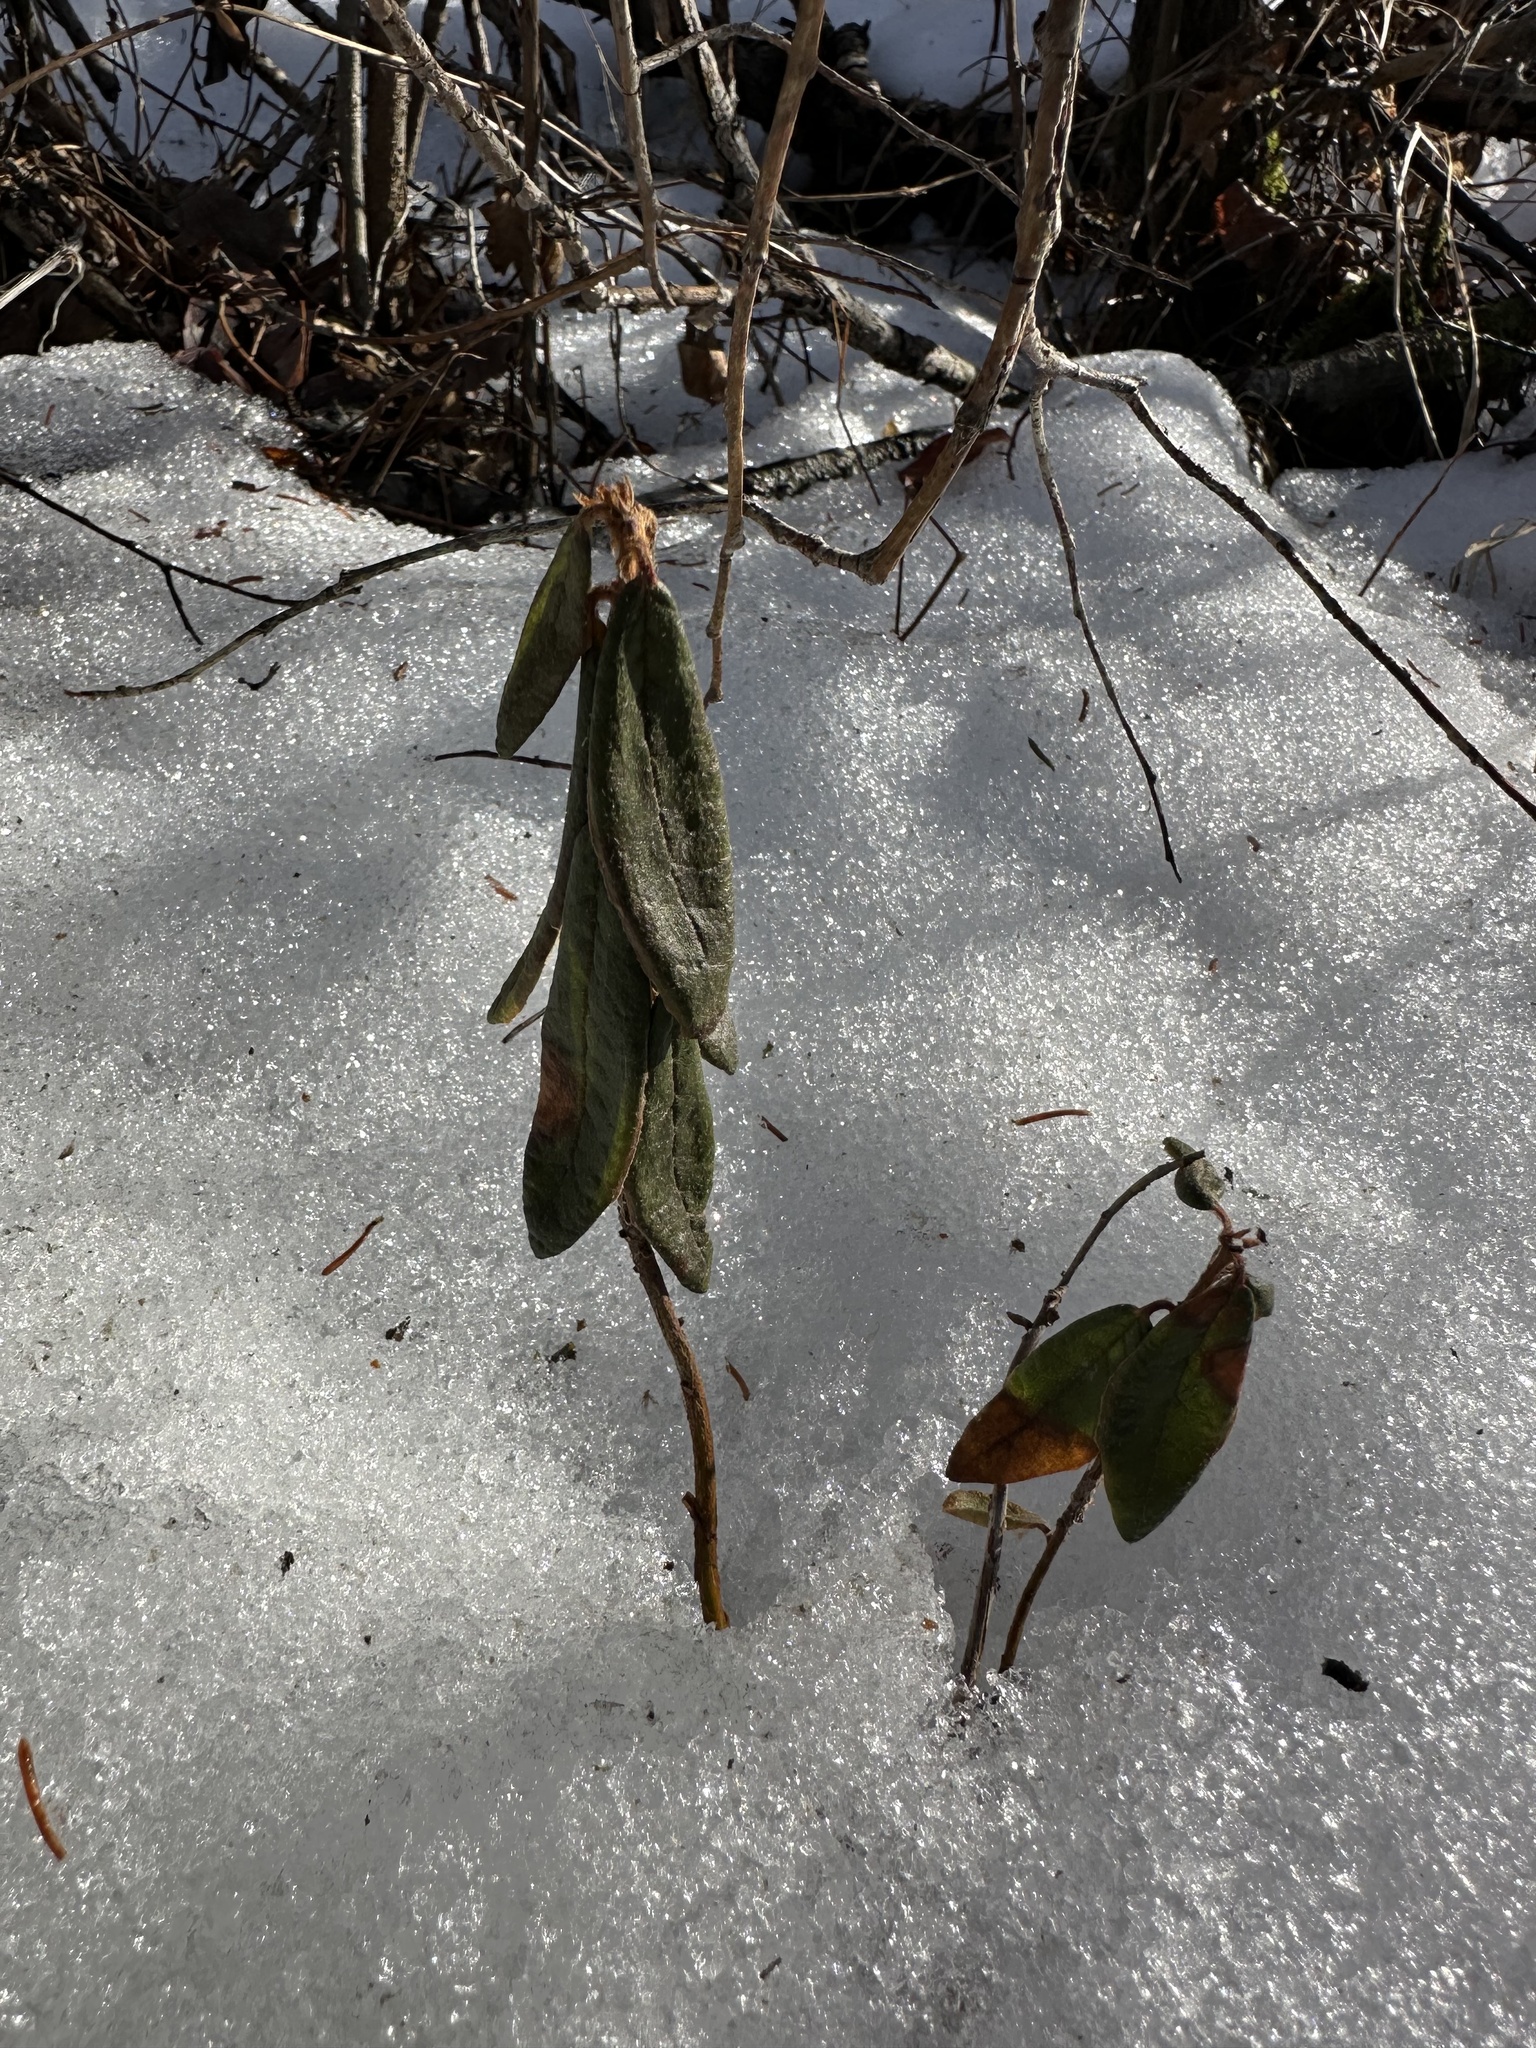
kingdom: Plantae
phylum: Tracheophyta
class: Magnoliopsida
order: Ericales
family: Ericaceae
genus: Rhododendron
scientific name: Rhododendron groenlandicum
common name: Bog labrador tea
